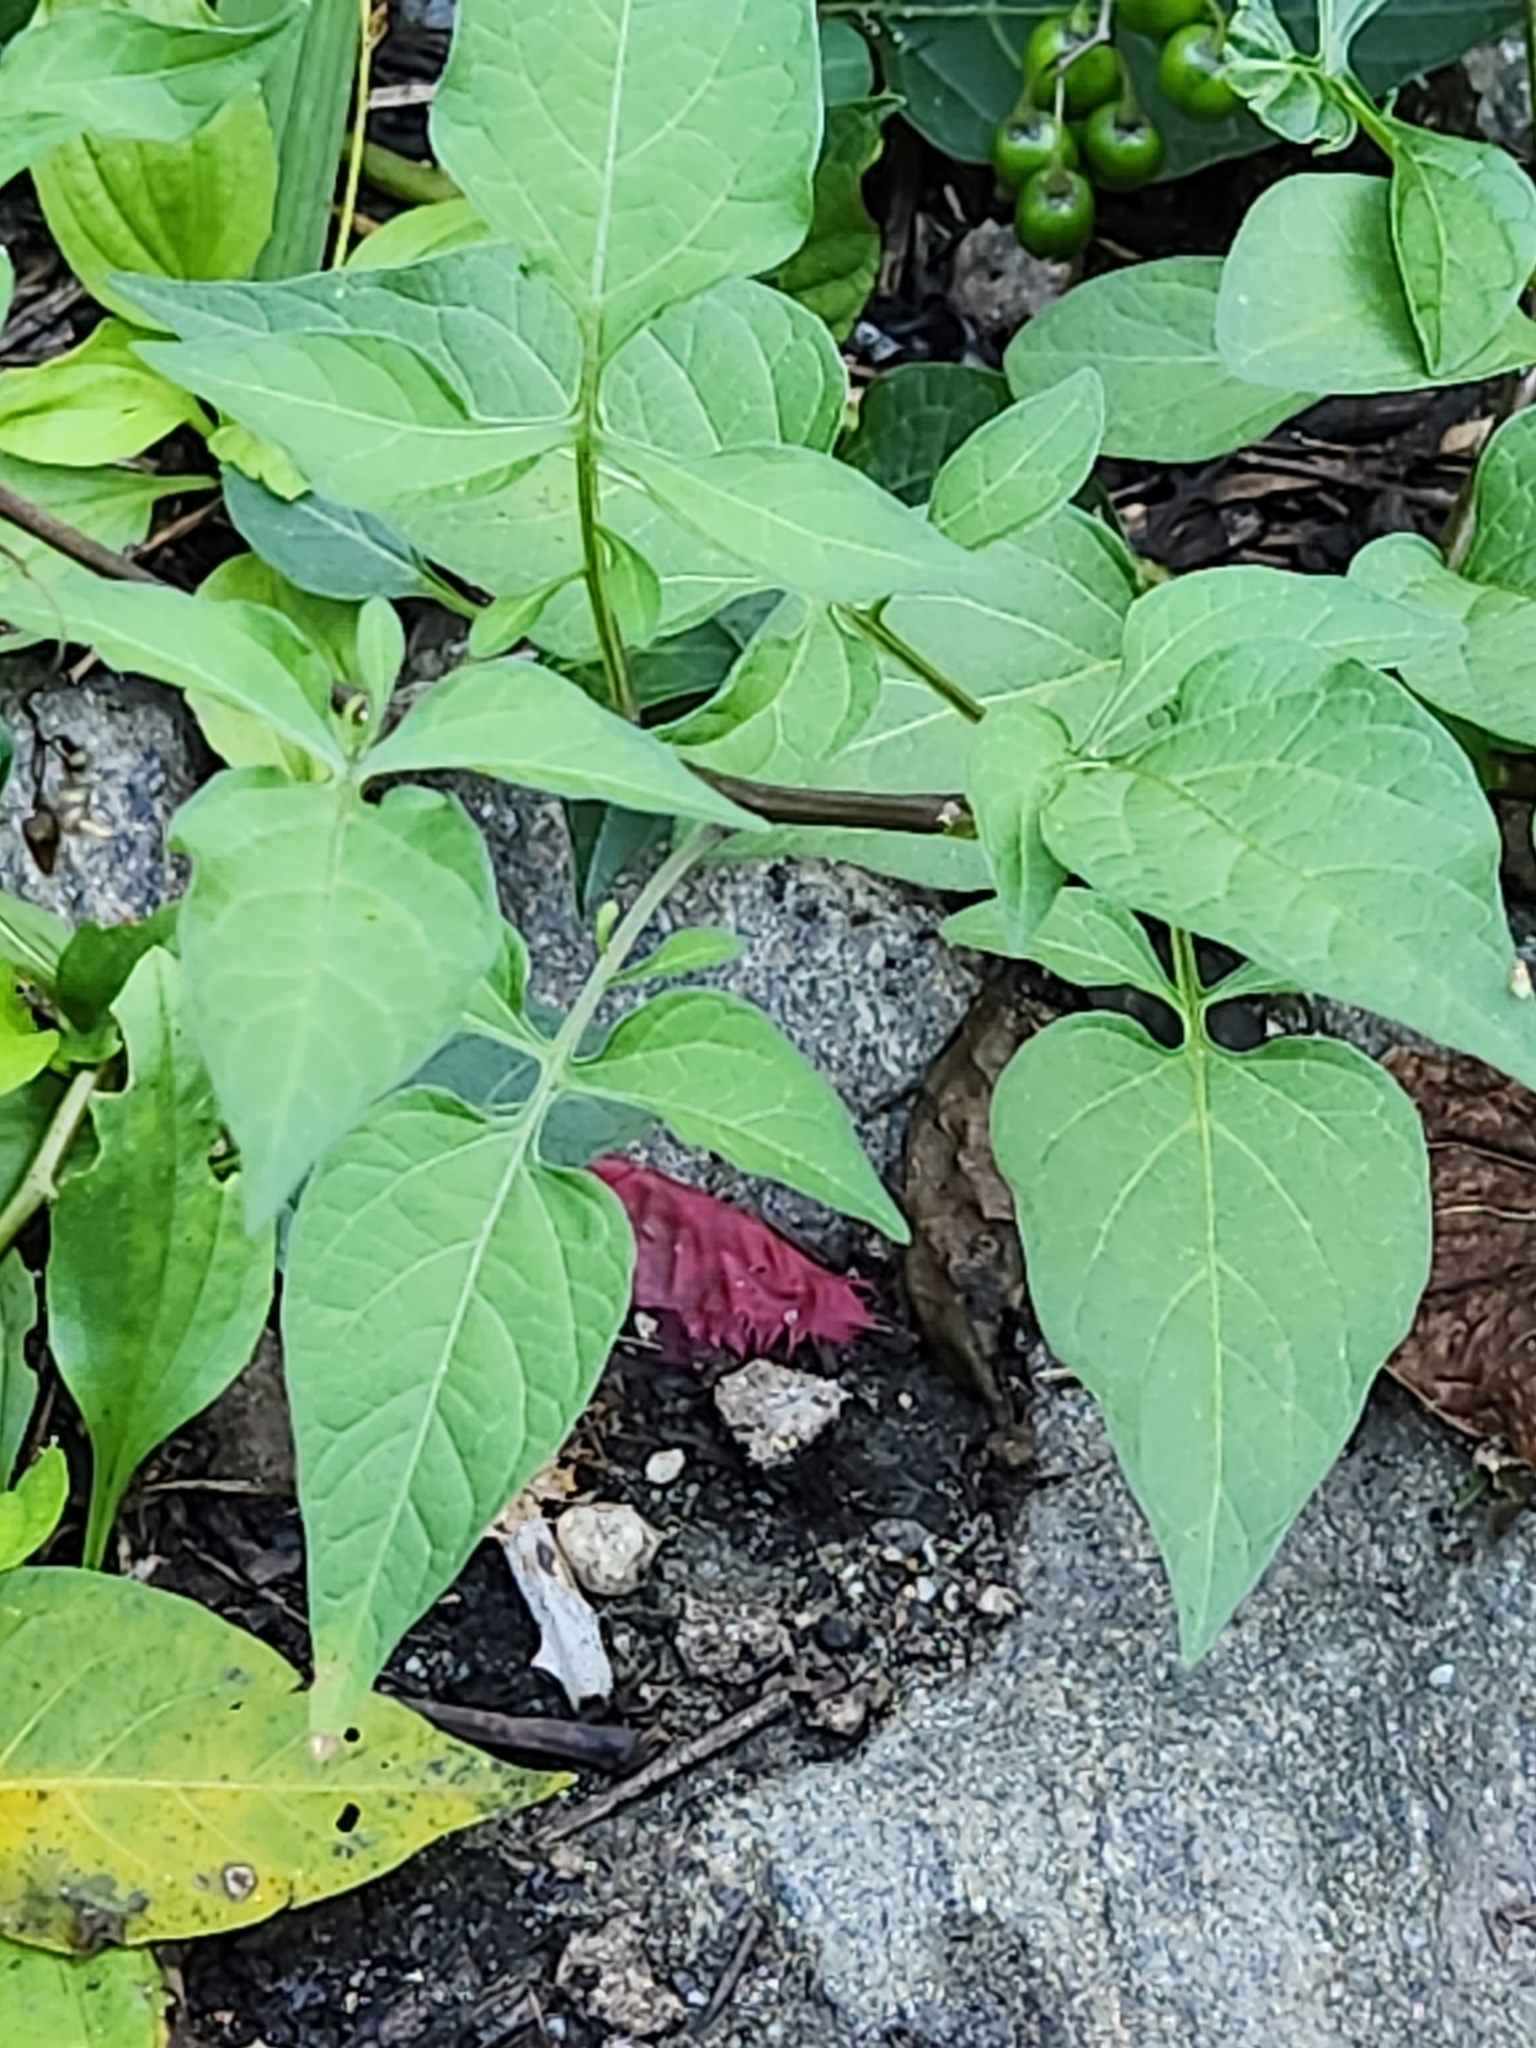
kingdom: Plantae
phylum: Tracheophyta
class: Magnoliopsida
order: Solanales
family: Solanaceae
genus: Solanum
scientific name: Solanum dulcamara
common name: Climbing nightshade
